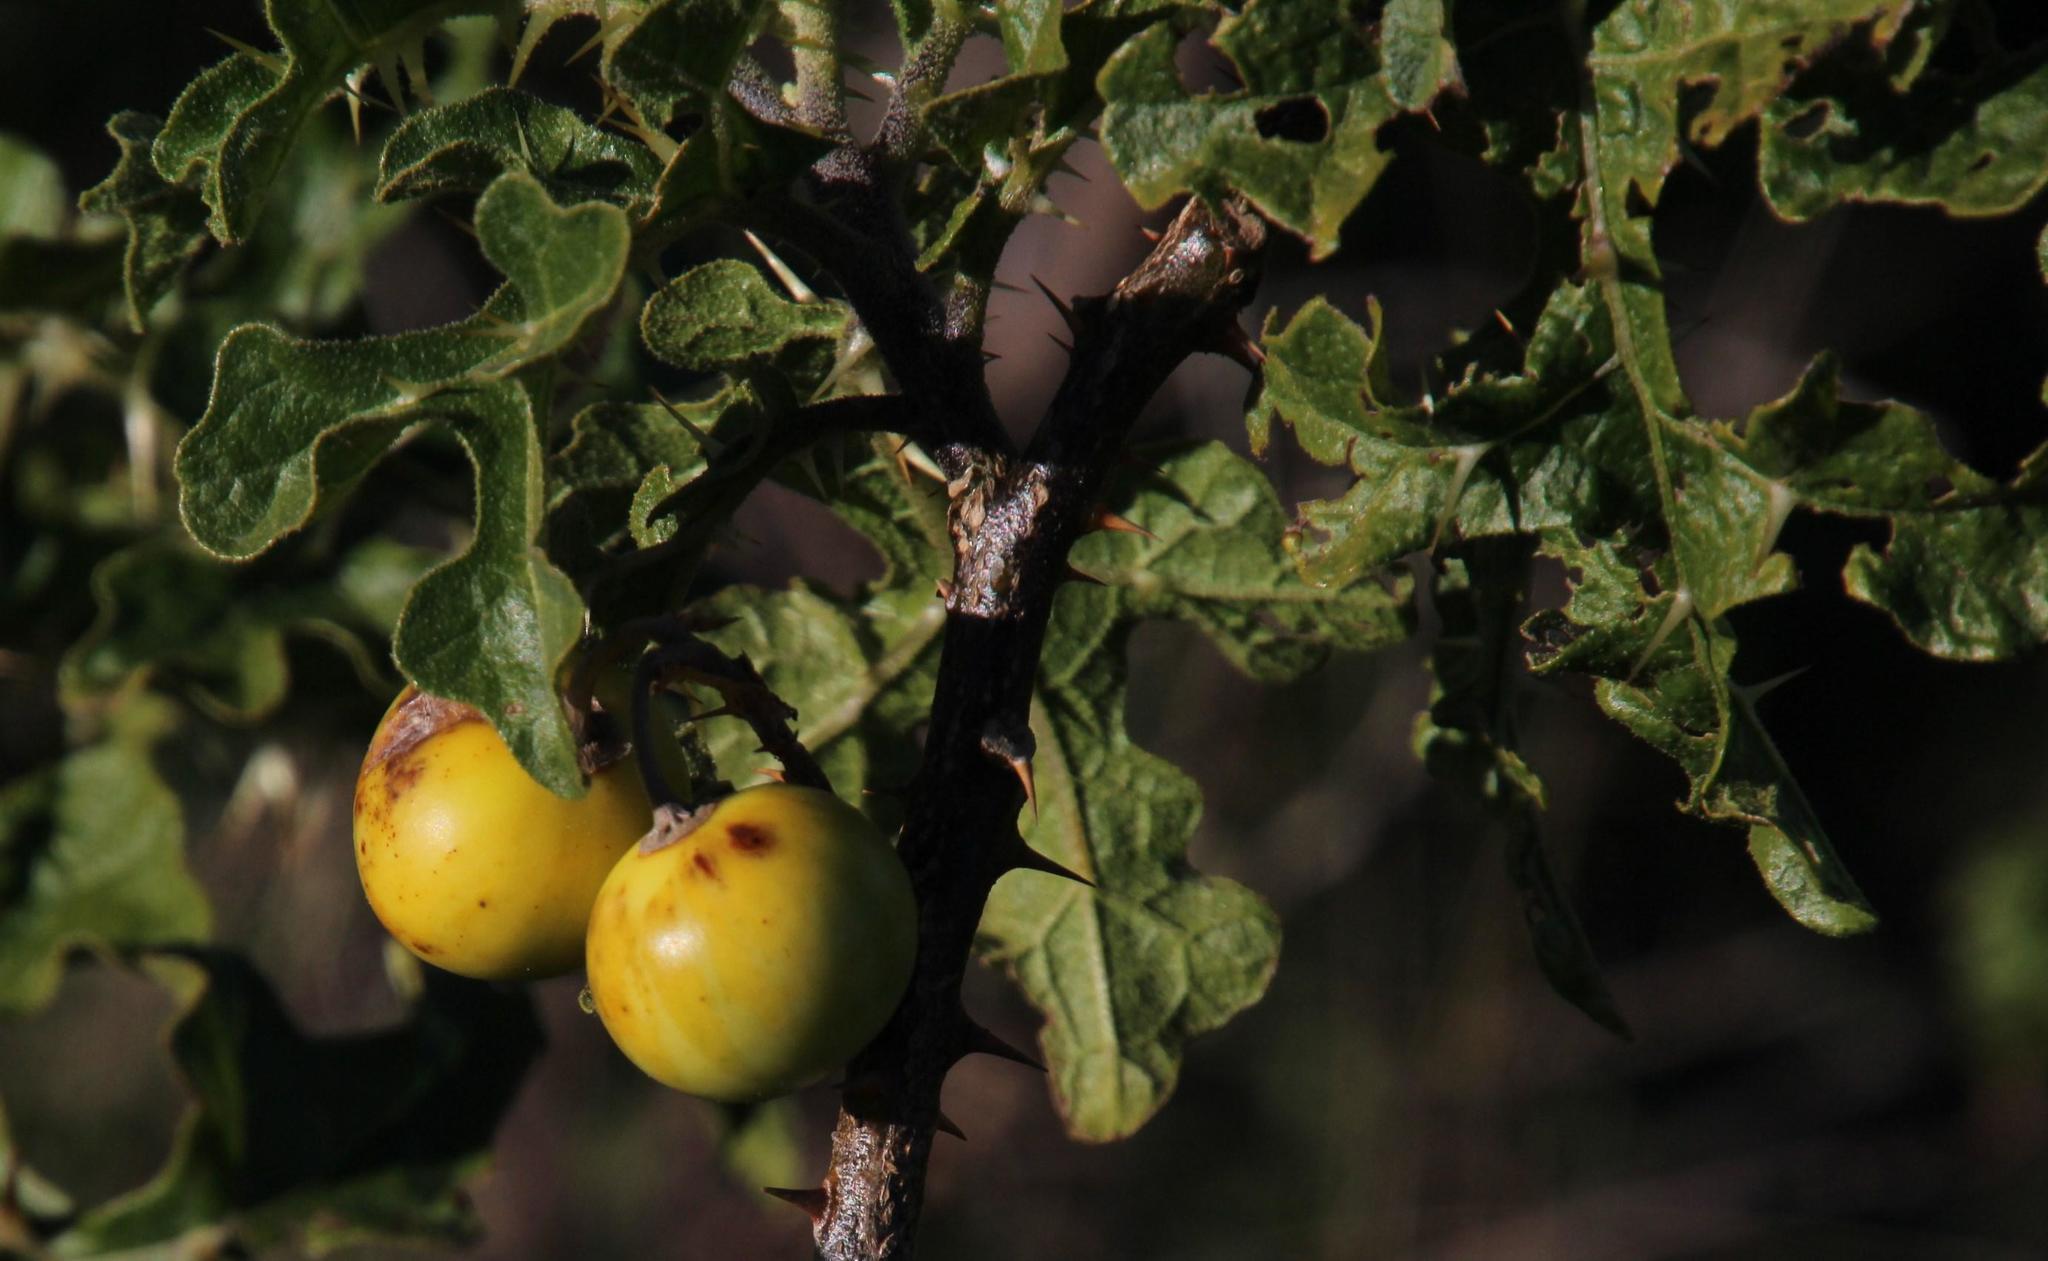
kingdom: Plantae
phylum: Tracheophyta
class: Magnoliopsida
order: Solanales
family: Solanaceae
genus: Solanum
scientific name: Solanum linnaeanum
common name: Nightshade
